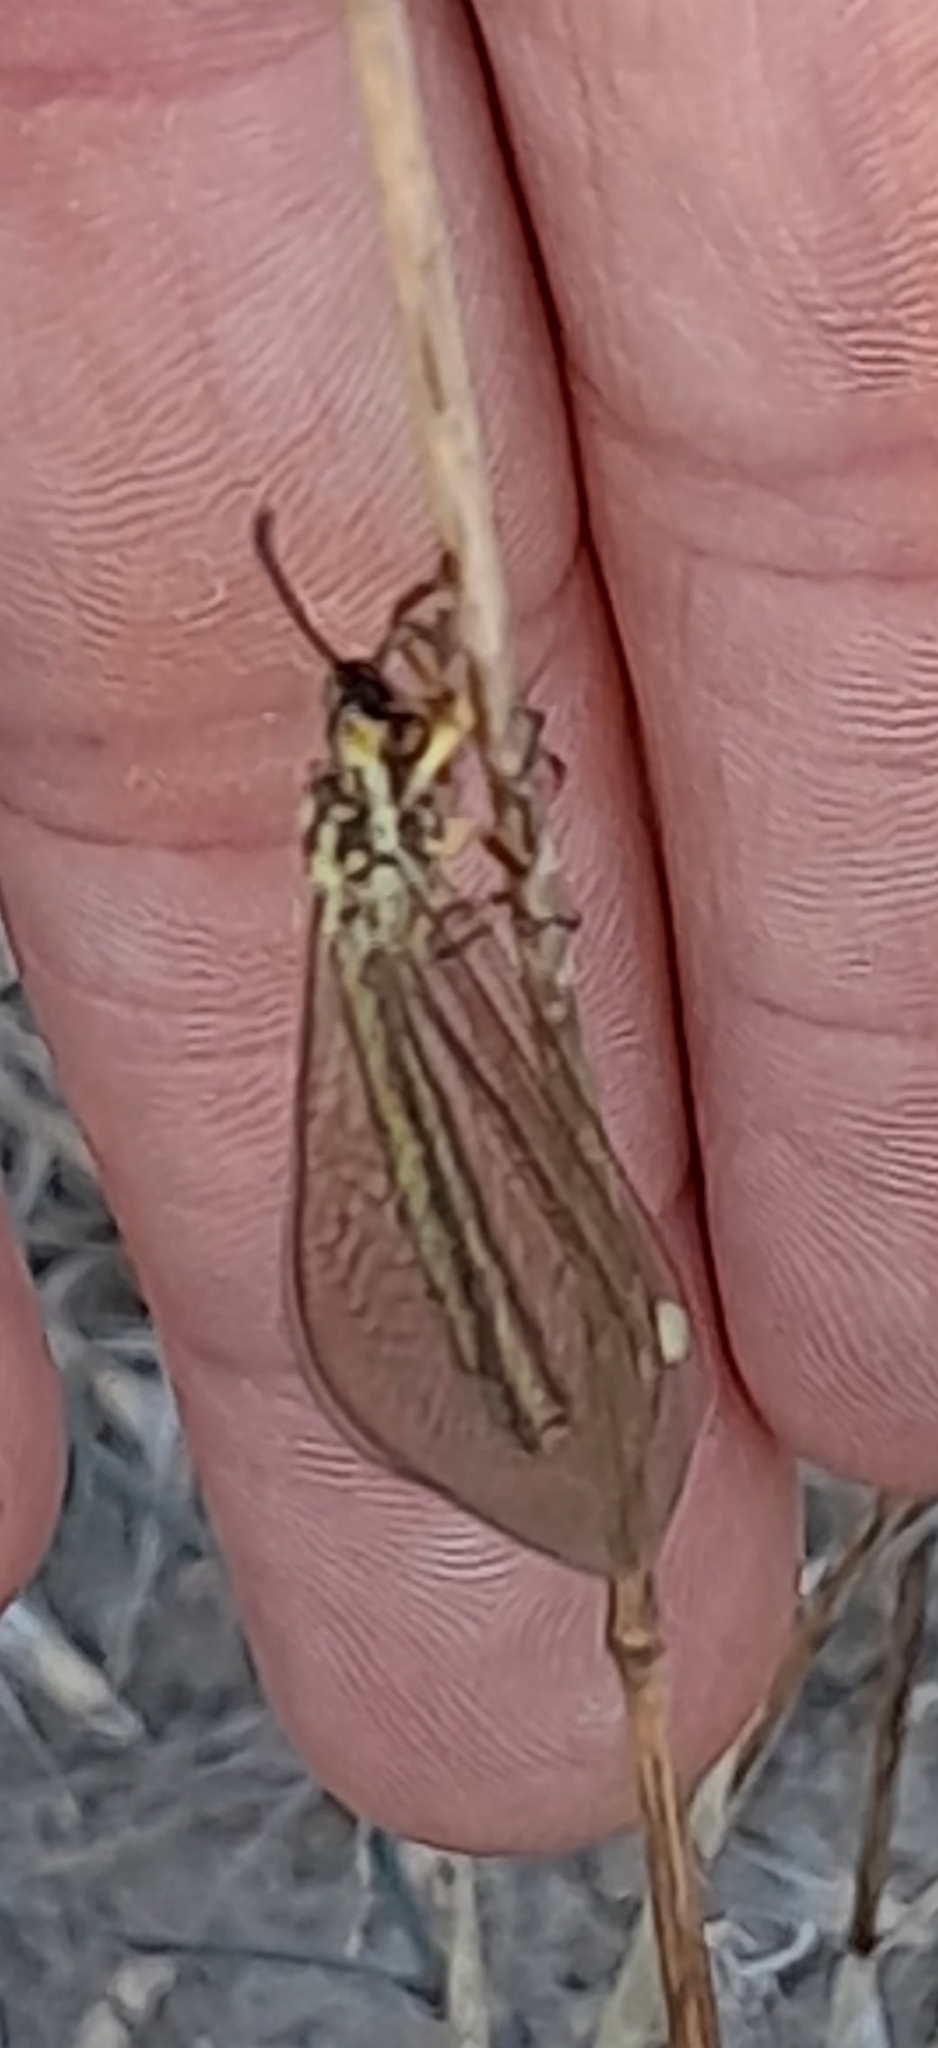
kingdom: Animalia
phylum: Arthropoda
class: Insecta
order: Neuroptera
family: Myrmeleontidae
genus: Myrmecaelurus
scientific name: Myrmecaelurus trigrammus
